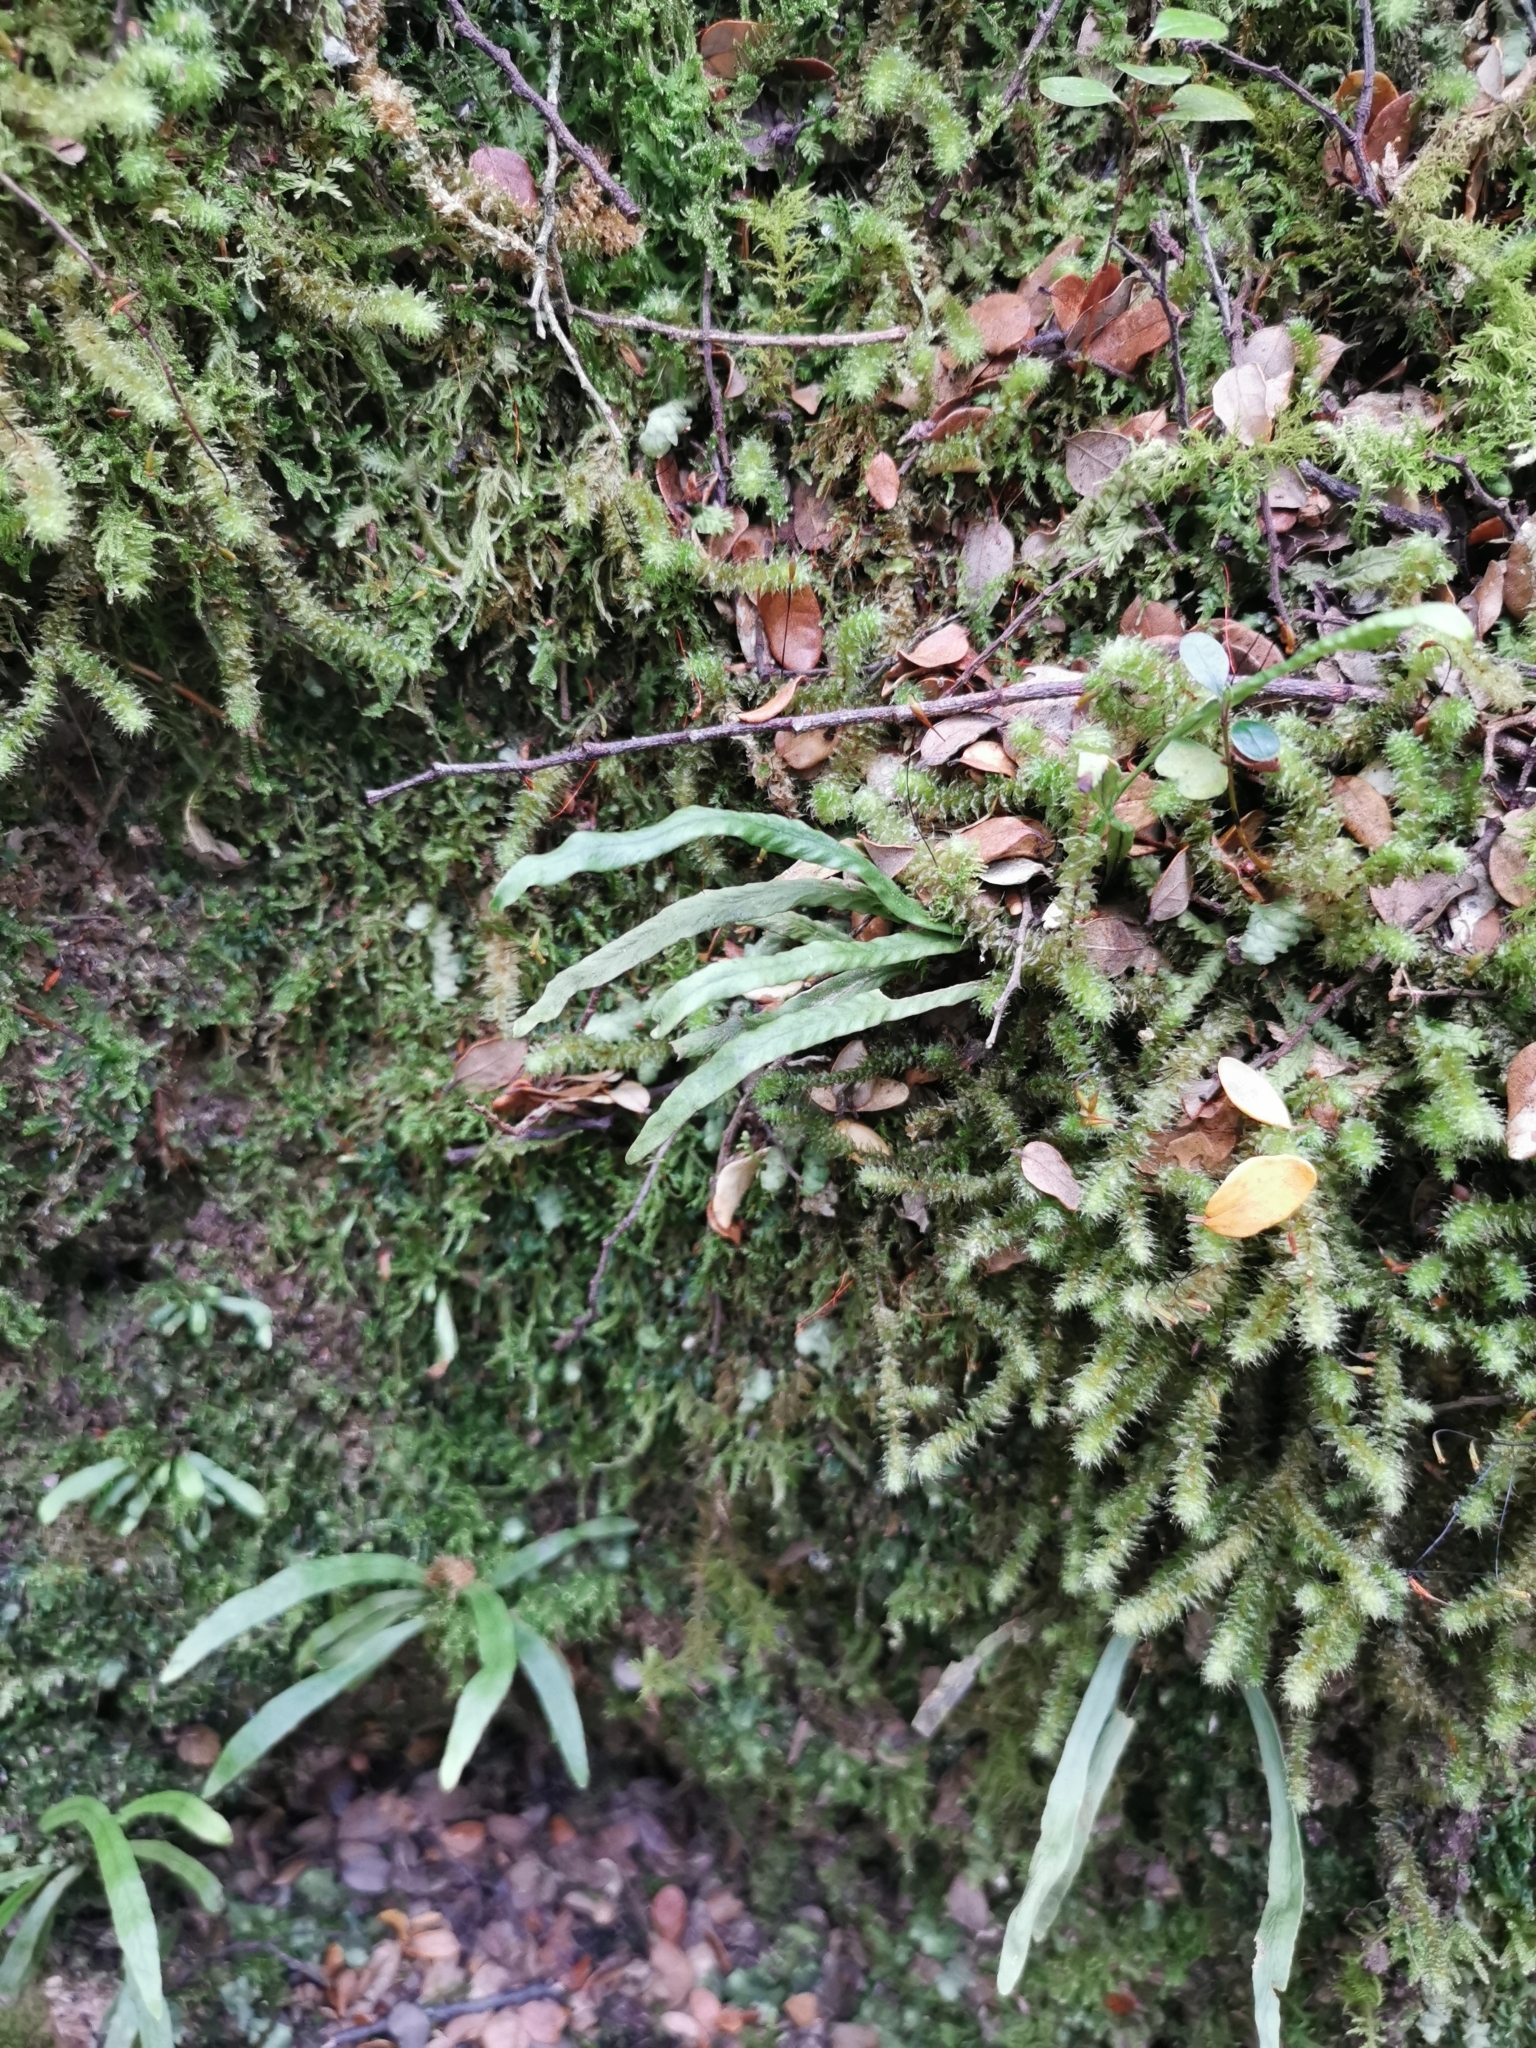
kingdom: Plantae
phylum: Tracheophyta
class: Polypodiopsida
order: Polypodiales
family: Polypodiaceae
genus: Notogrammitis
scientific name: Notogrammitis billardierei
